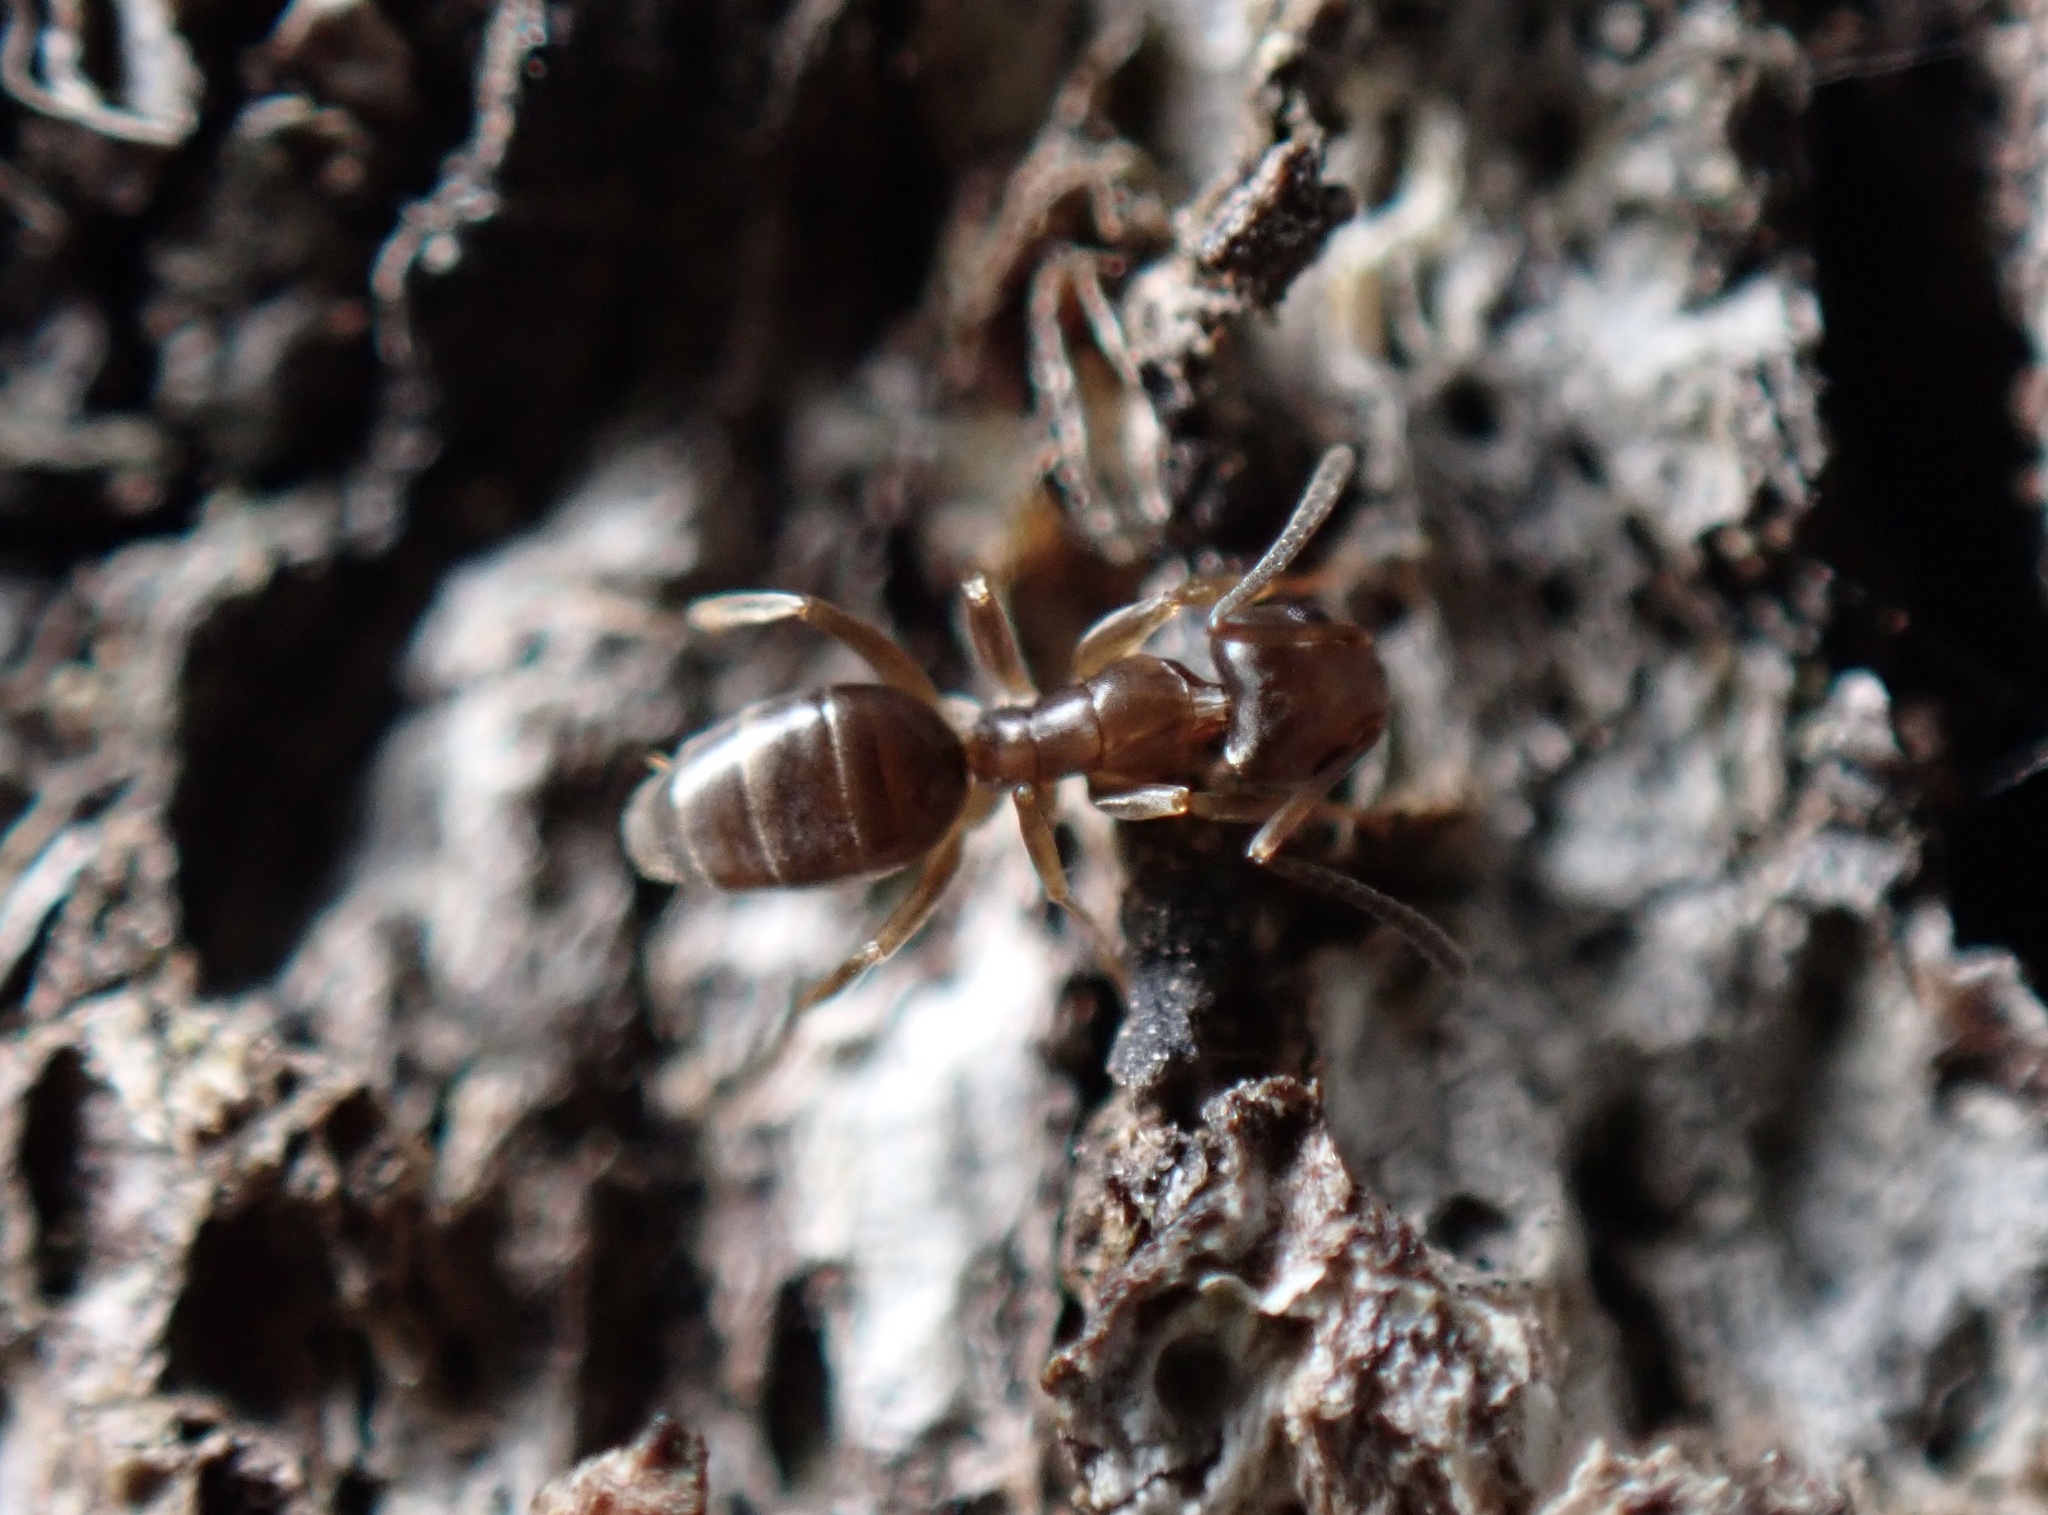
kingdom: Animalia
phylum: Arthropoda
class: Insecta
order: Hymenoptera
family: Formicidae
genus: Tapinoma
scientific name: Tapinoma sessile
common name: Odorous house ant
